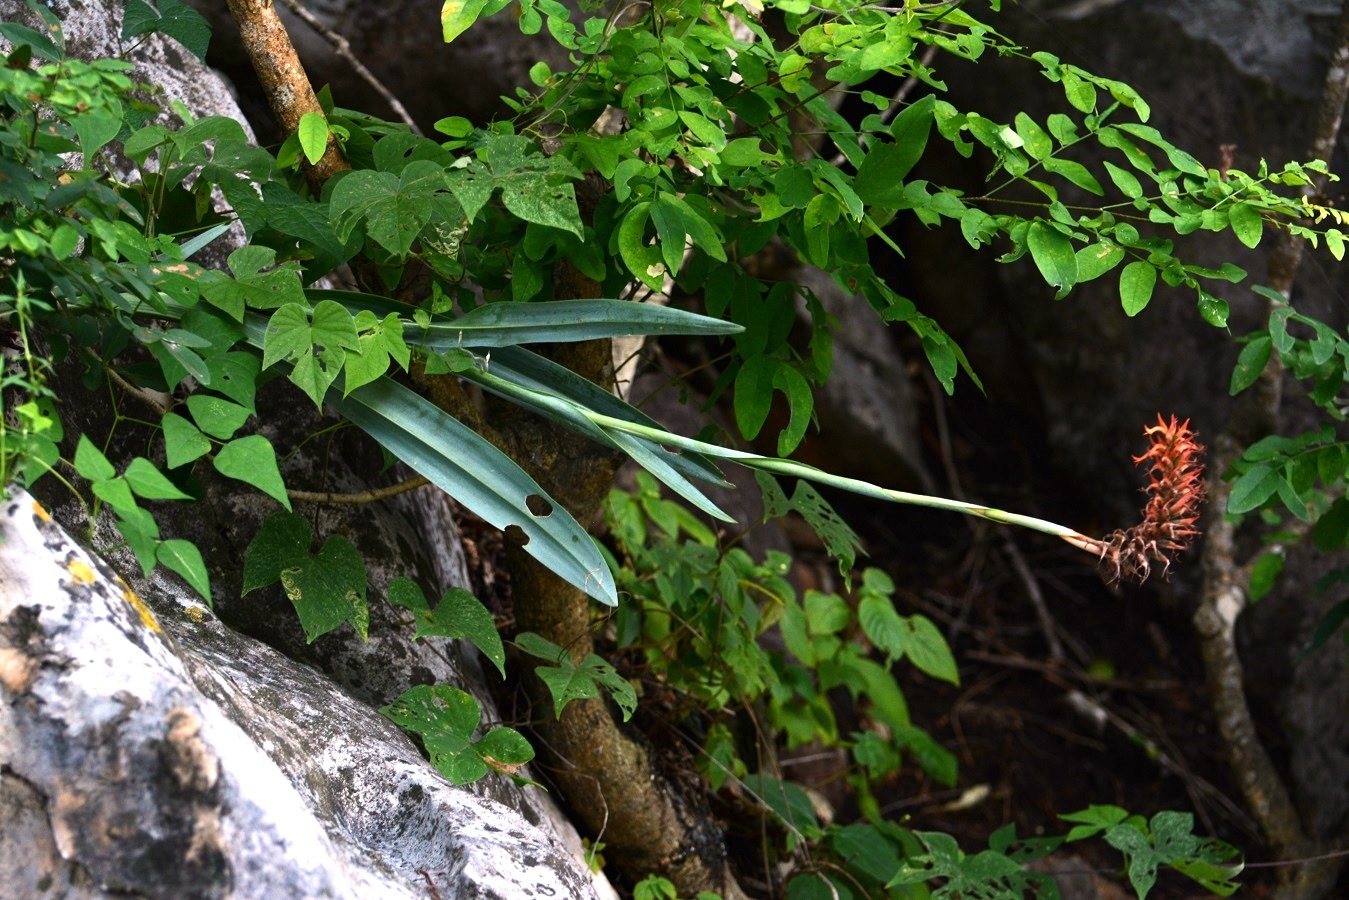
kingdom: Plantae
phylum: Tracheophyta
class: Liliopsida
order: Asparagales
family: Orchidaceae
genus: Dichromanthus
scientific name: Dichromanthus cinnabarinus
